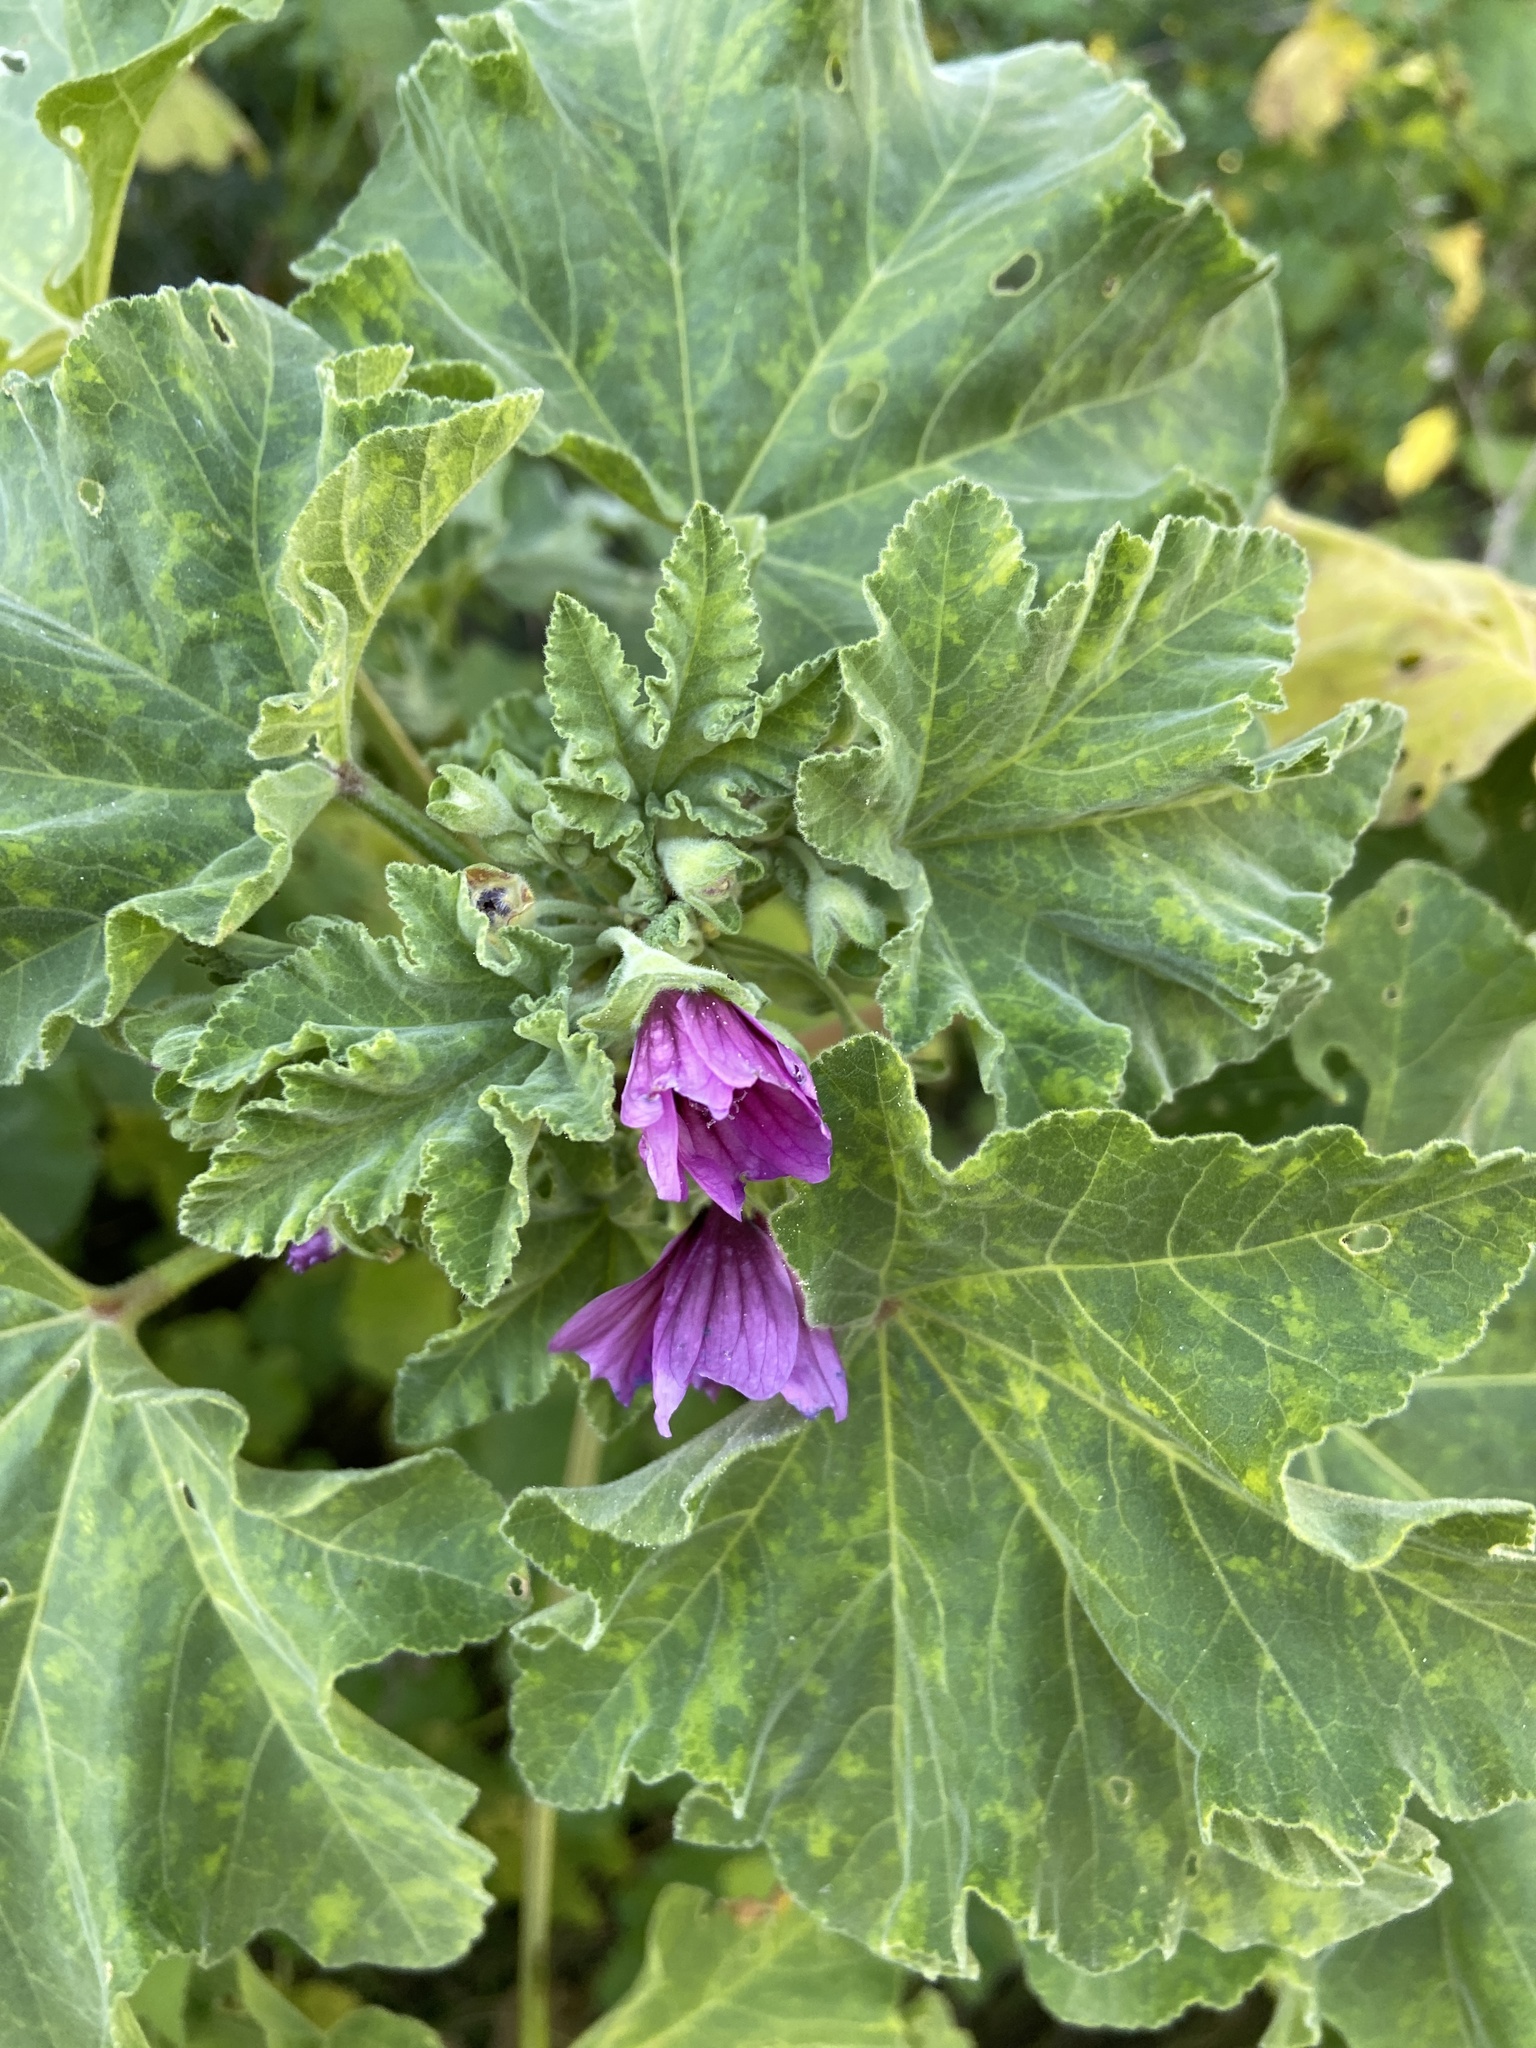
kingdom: Plantae
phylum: Tracheophyta
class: Magnoliopsida
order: Malvales
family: Malvaceae
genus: Malva
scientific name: Malva arborea
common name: Tree mallow
